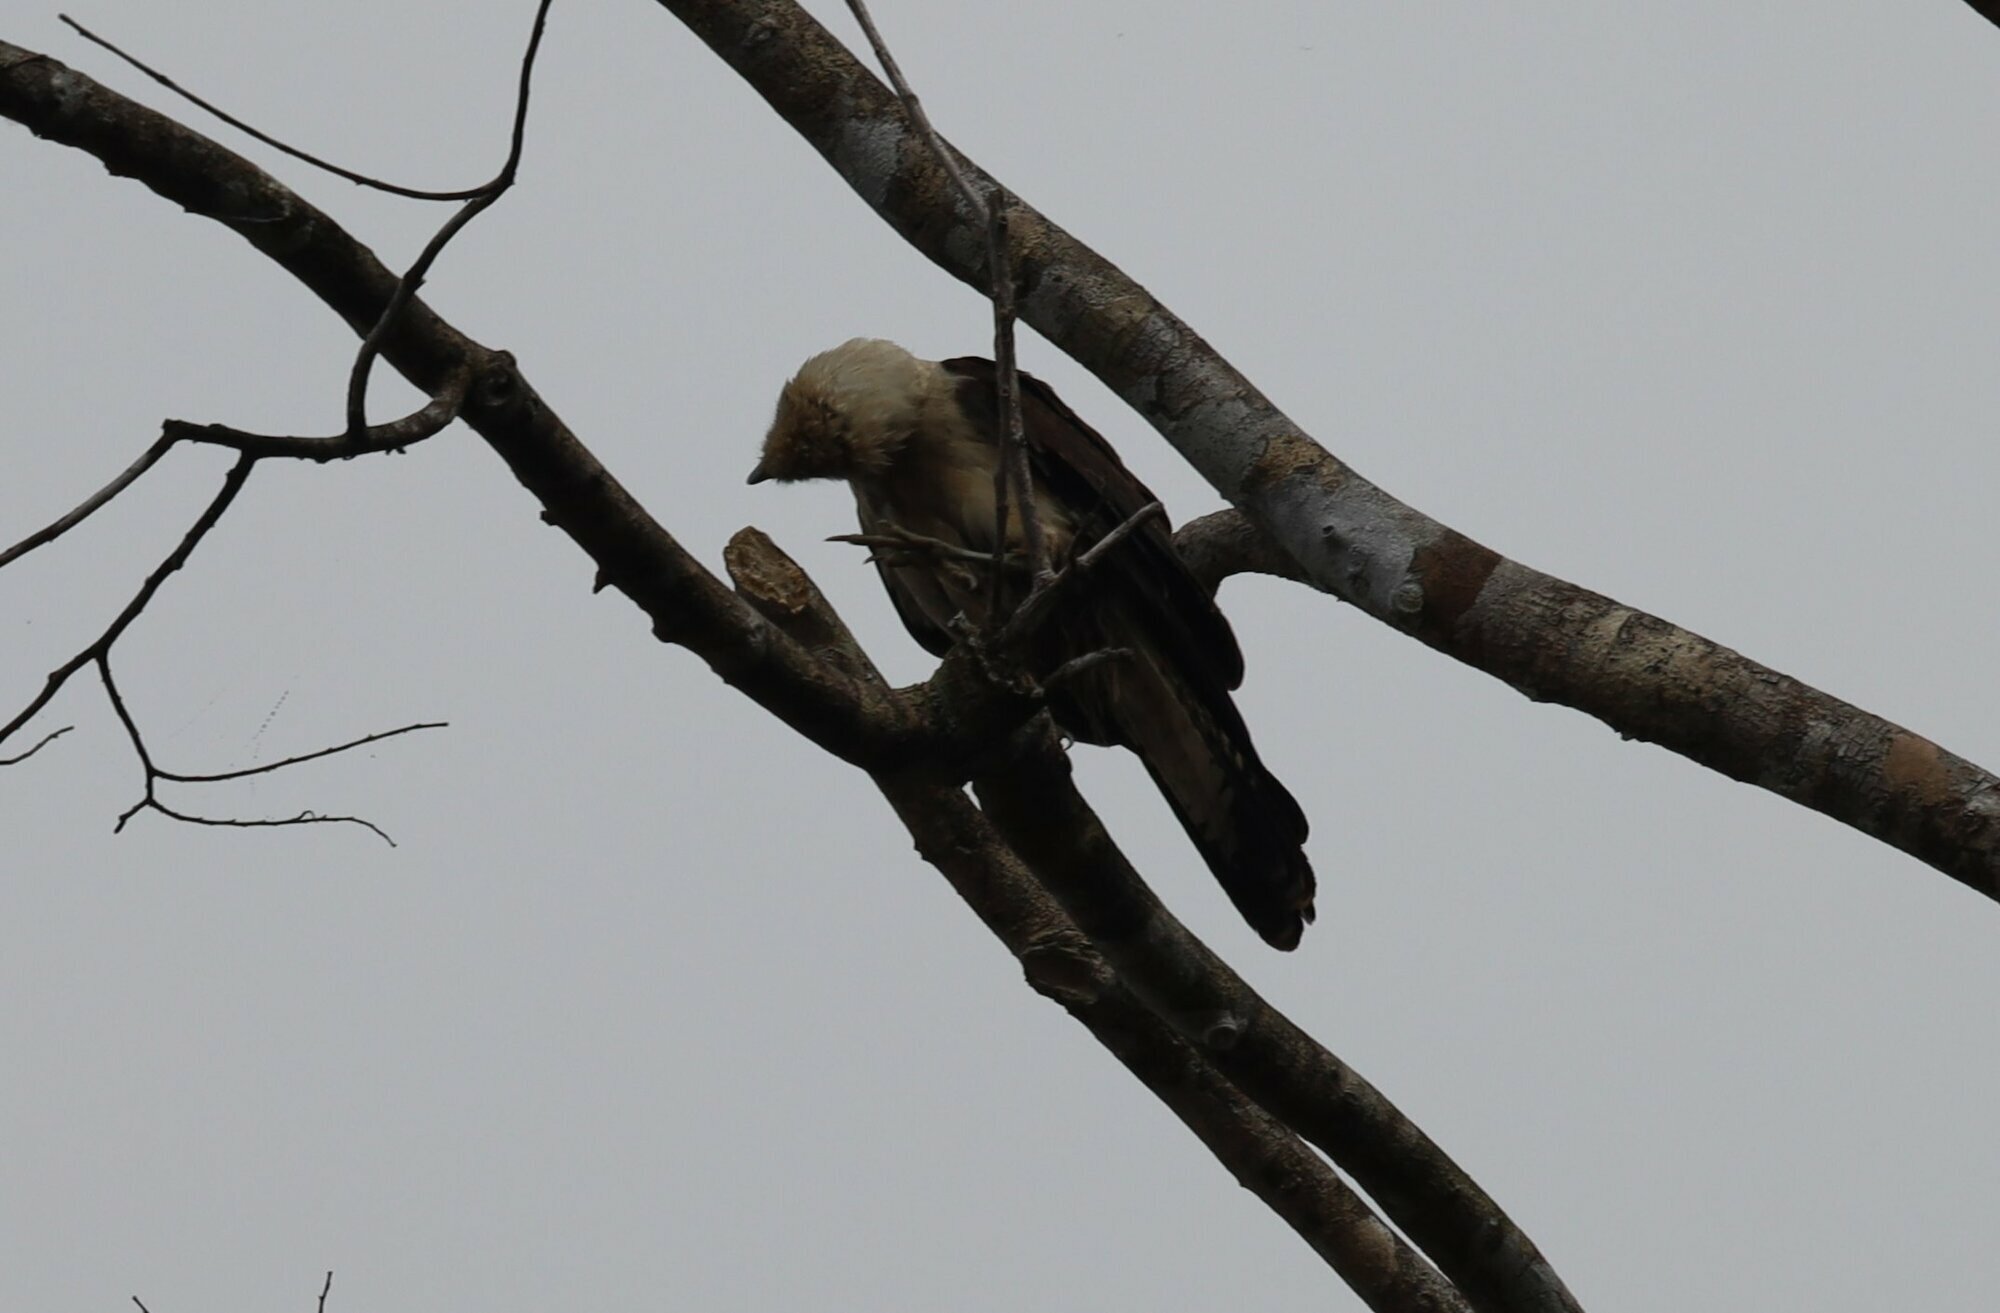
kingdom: Animalia
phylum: Chordata
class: Aves
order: Falconiformes
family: Falconidae
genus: Daptrius
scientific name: Daptrius
